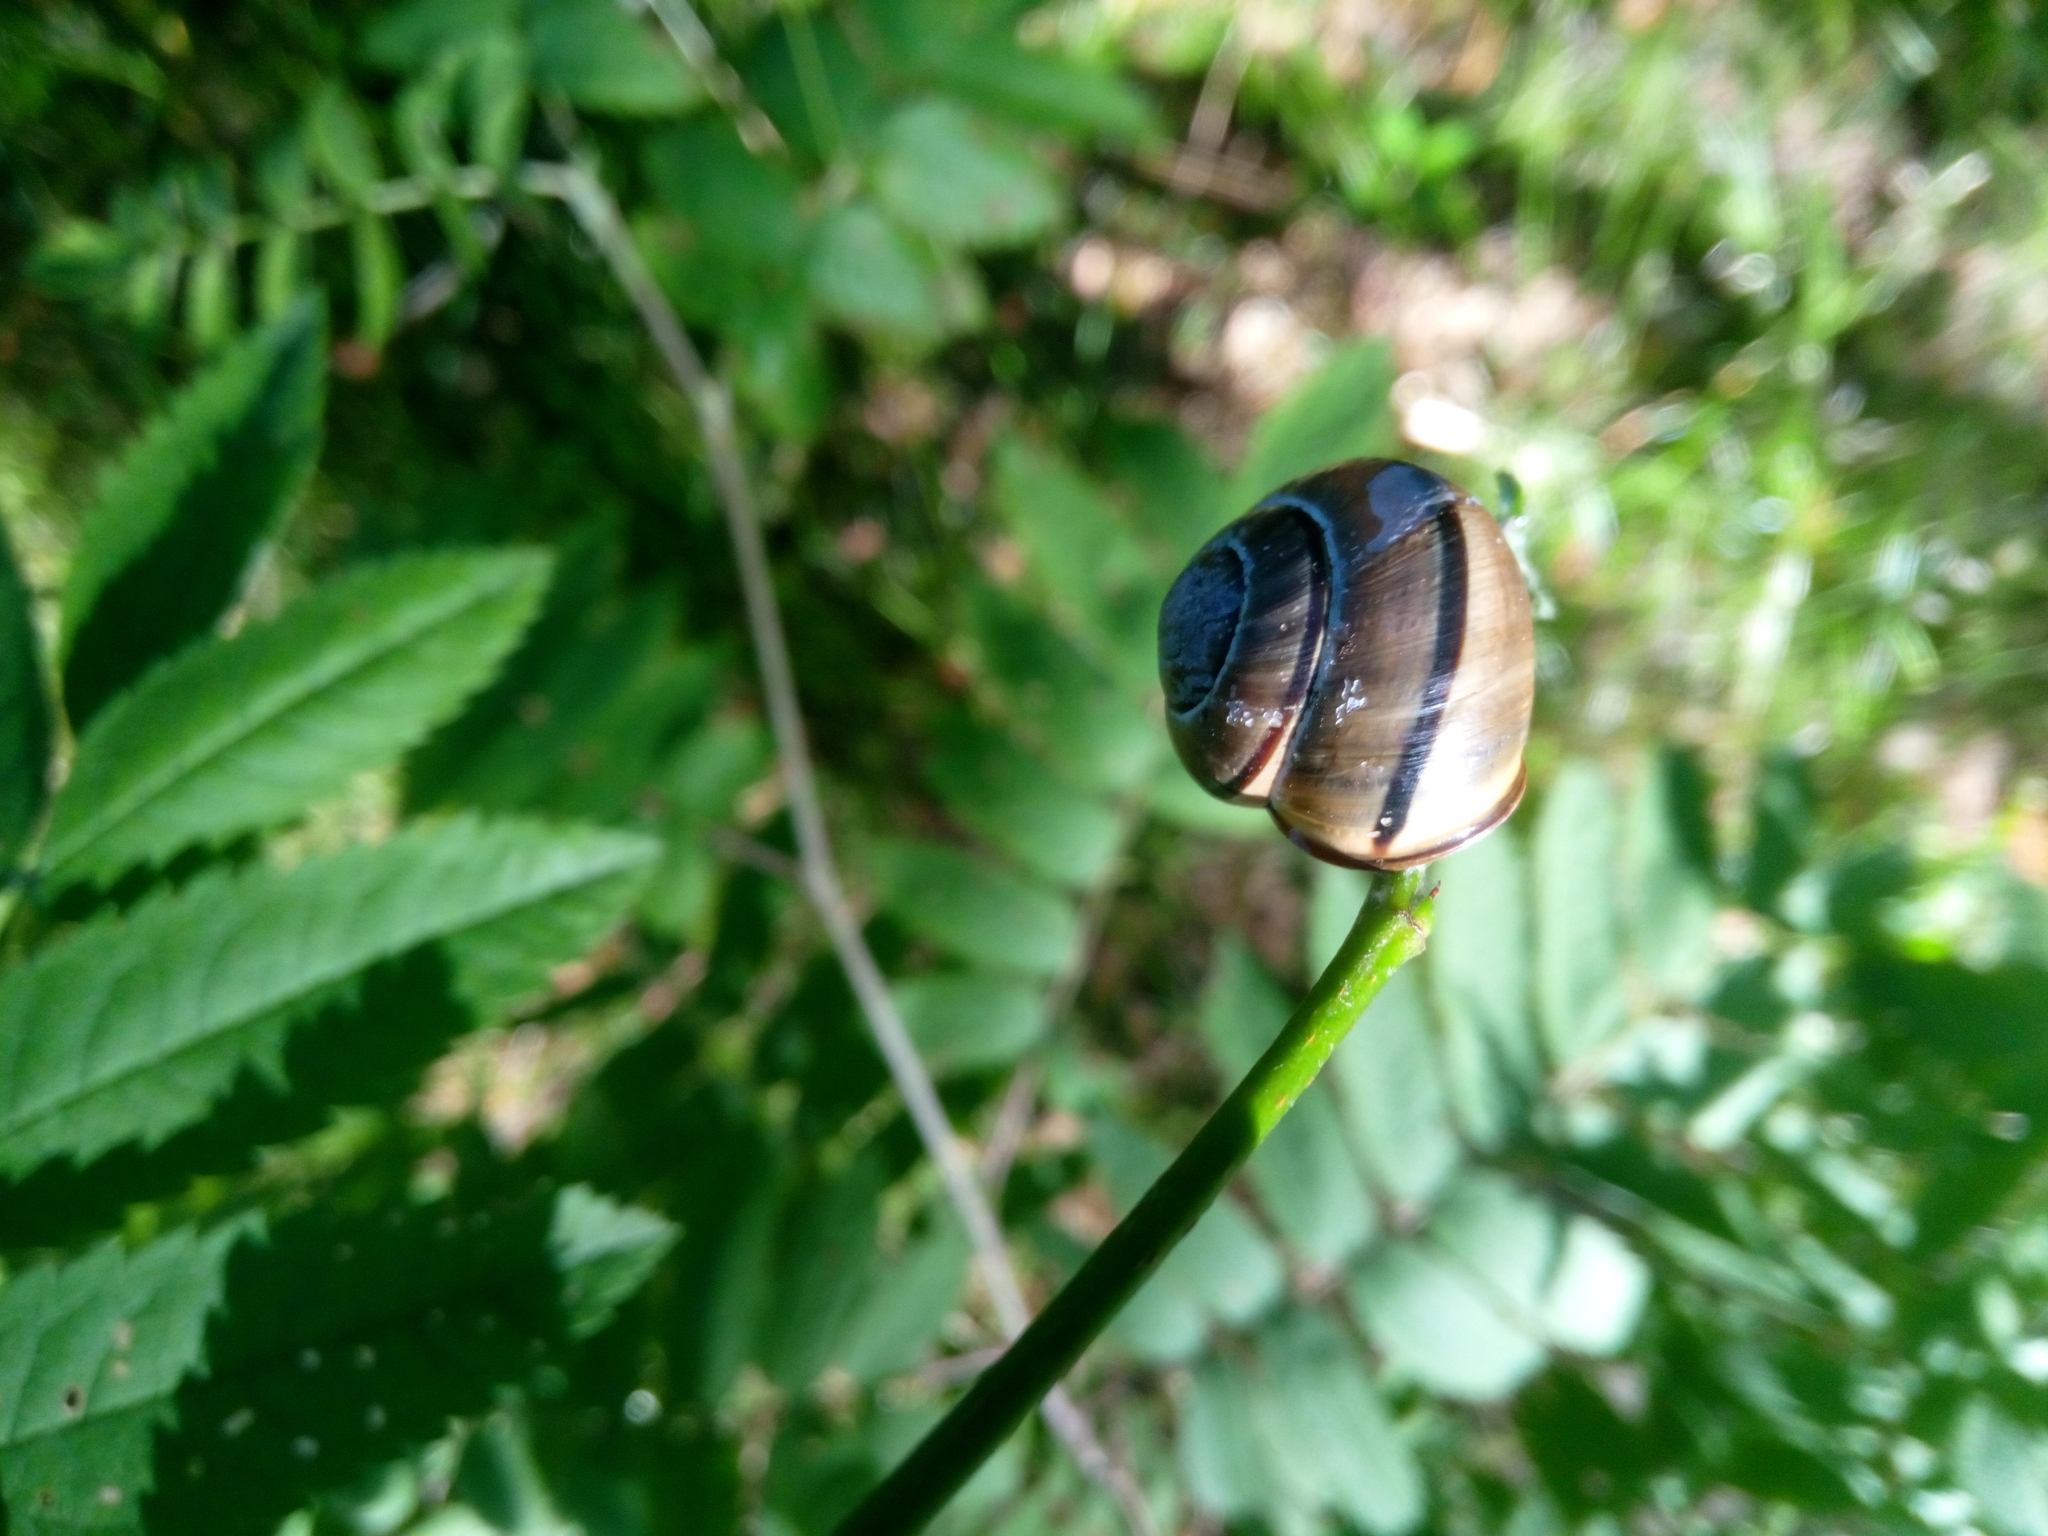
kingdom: Animalia
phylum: Mollusca
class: Gastropoda
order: Stylommatophora
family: Helicidae
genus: Cepaea
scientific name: Cepaea nemoralis
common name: Grovesnail
